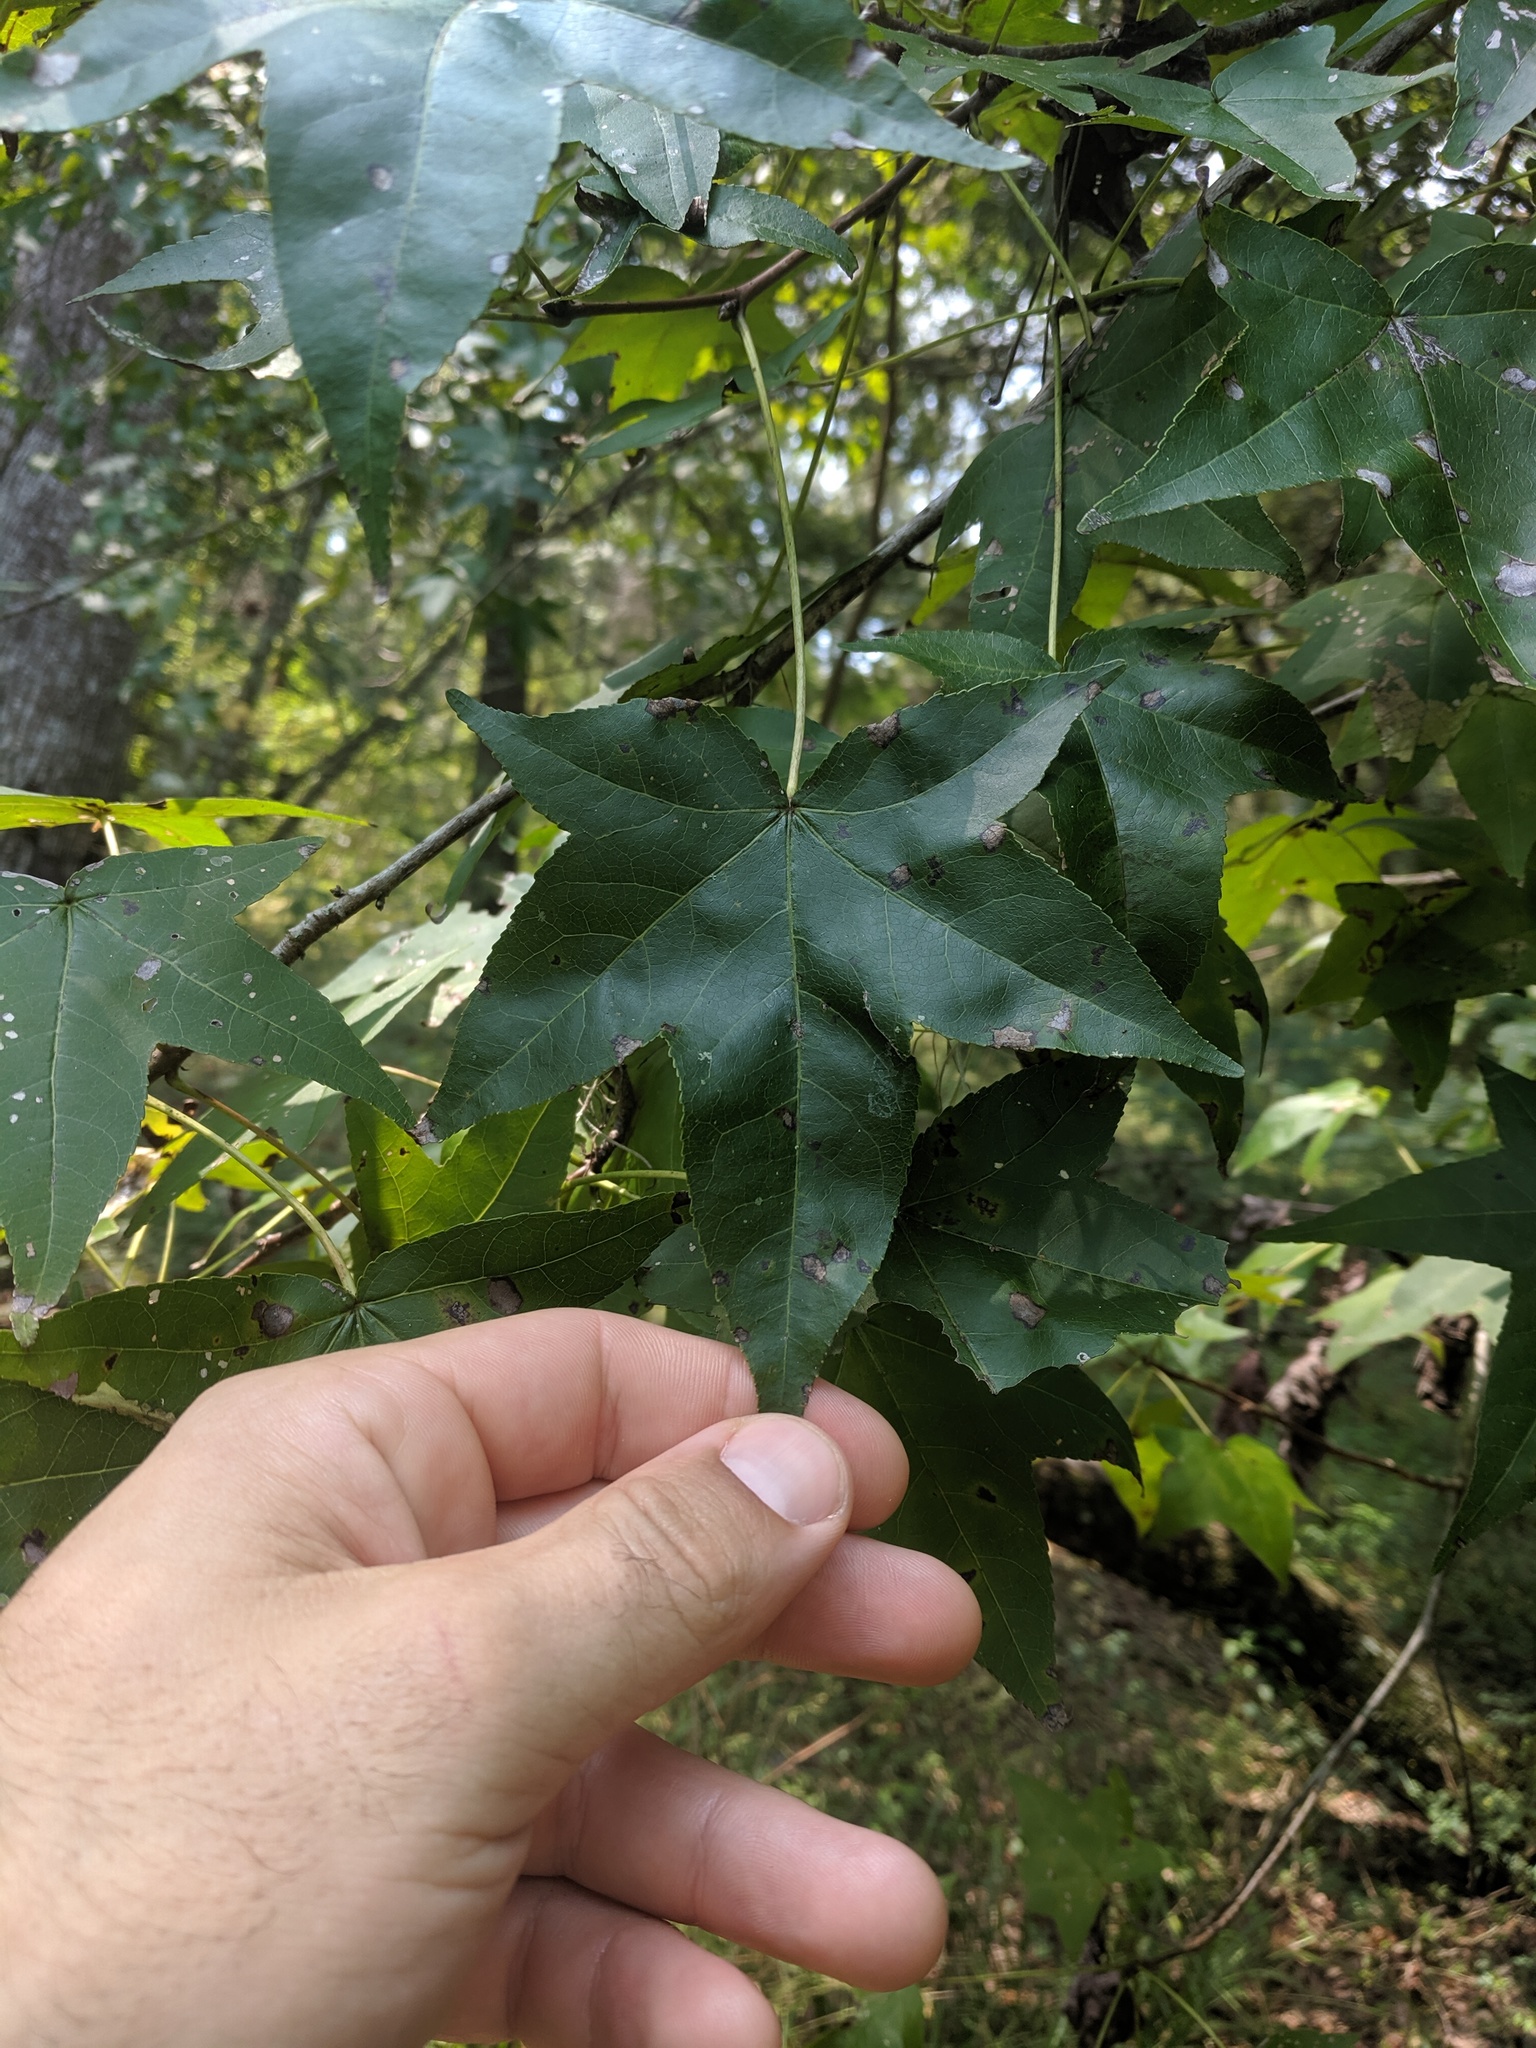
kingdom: Plantae
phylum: Tracheophyta
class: Magnoliopsida
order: Saxifragales
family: Altingiaceae
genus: Liquidambar
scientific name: Liquidambar styraciflua
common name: Sweet gum
